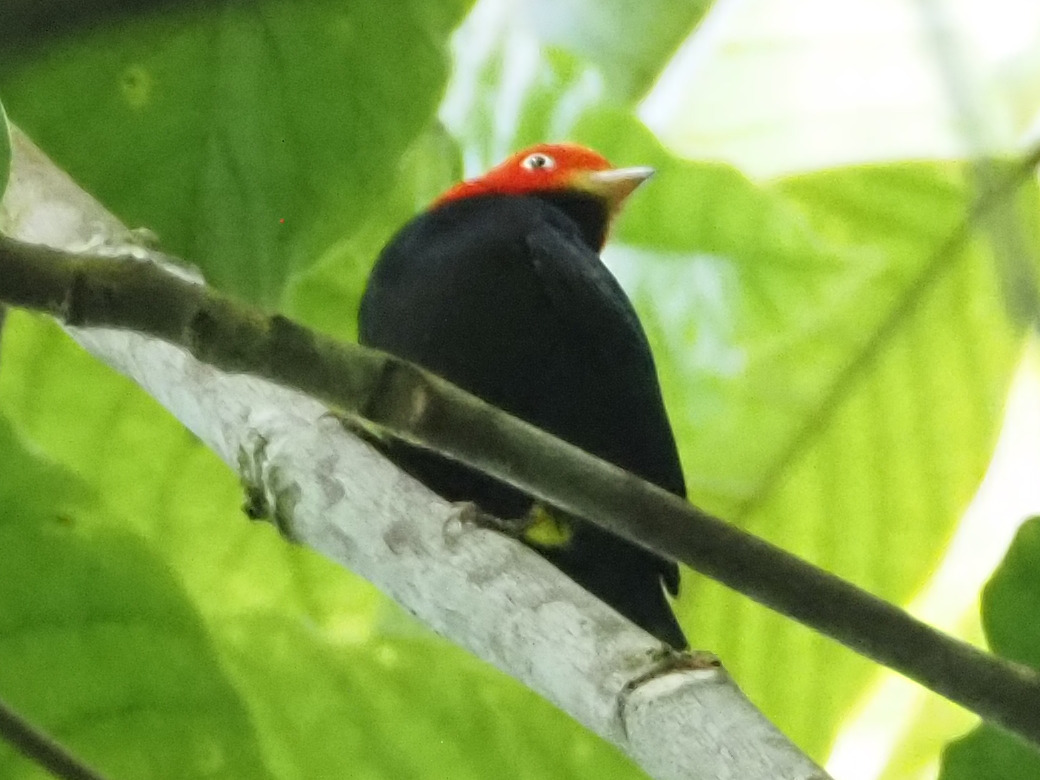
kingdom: Animalia
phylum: Chordata
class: Aves
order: Passeriformes
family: Pipridae
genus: Pipra
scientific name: Pipra mentalis
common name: Red-capped manakin
